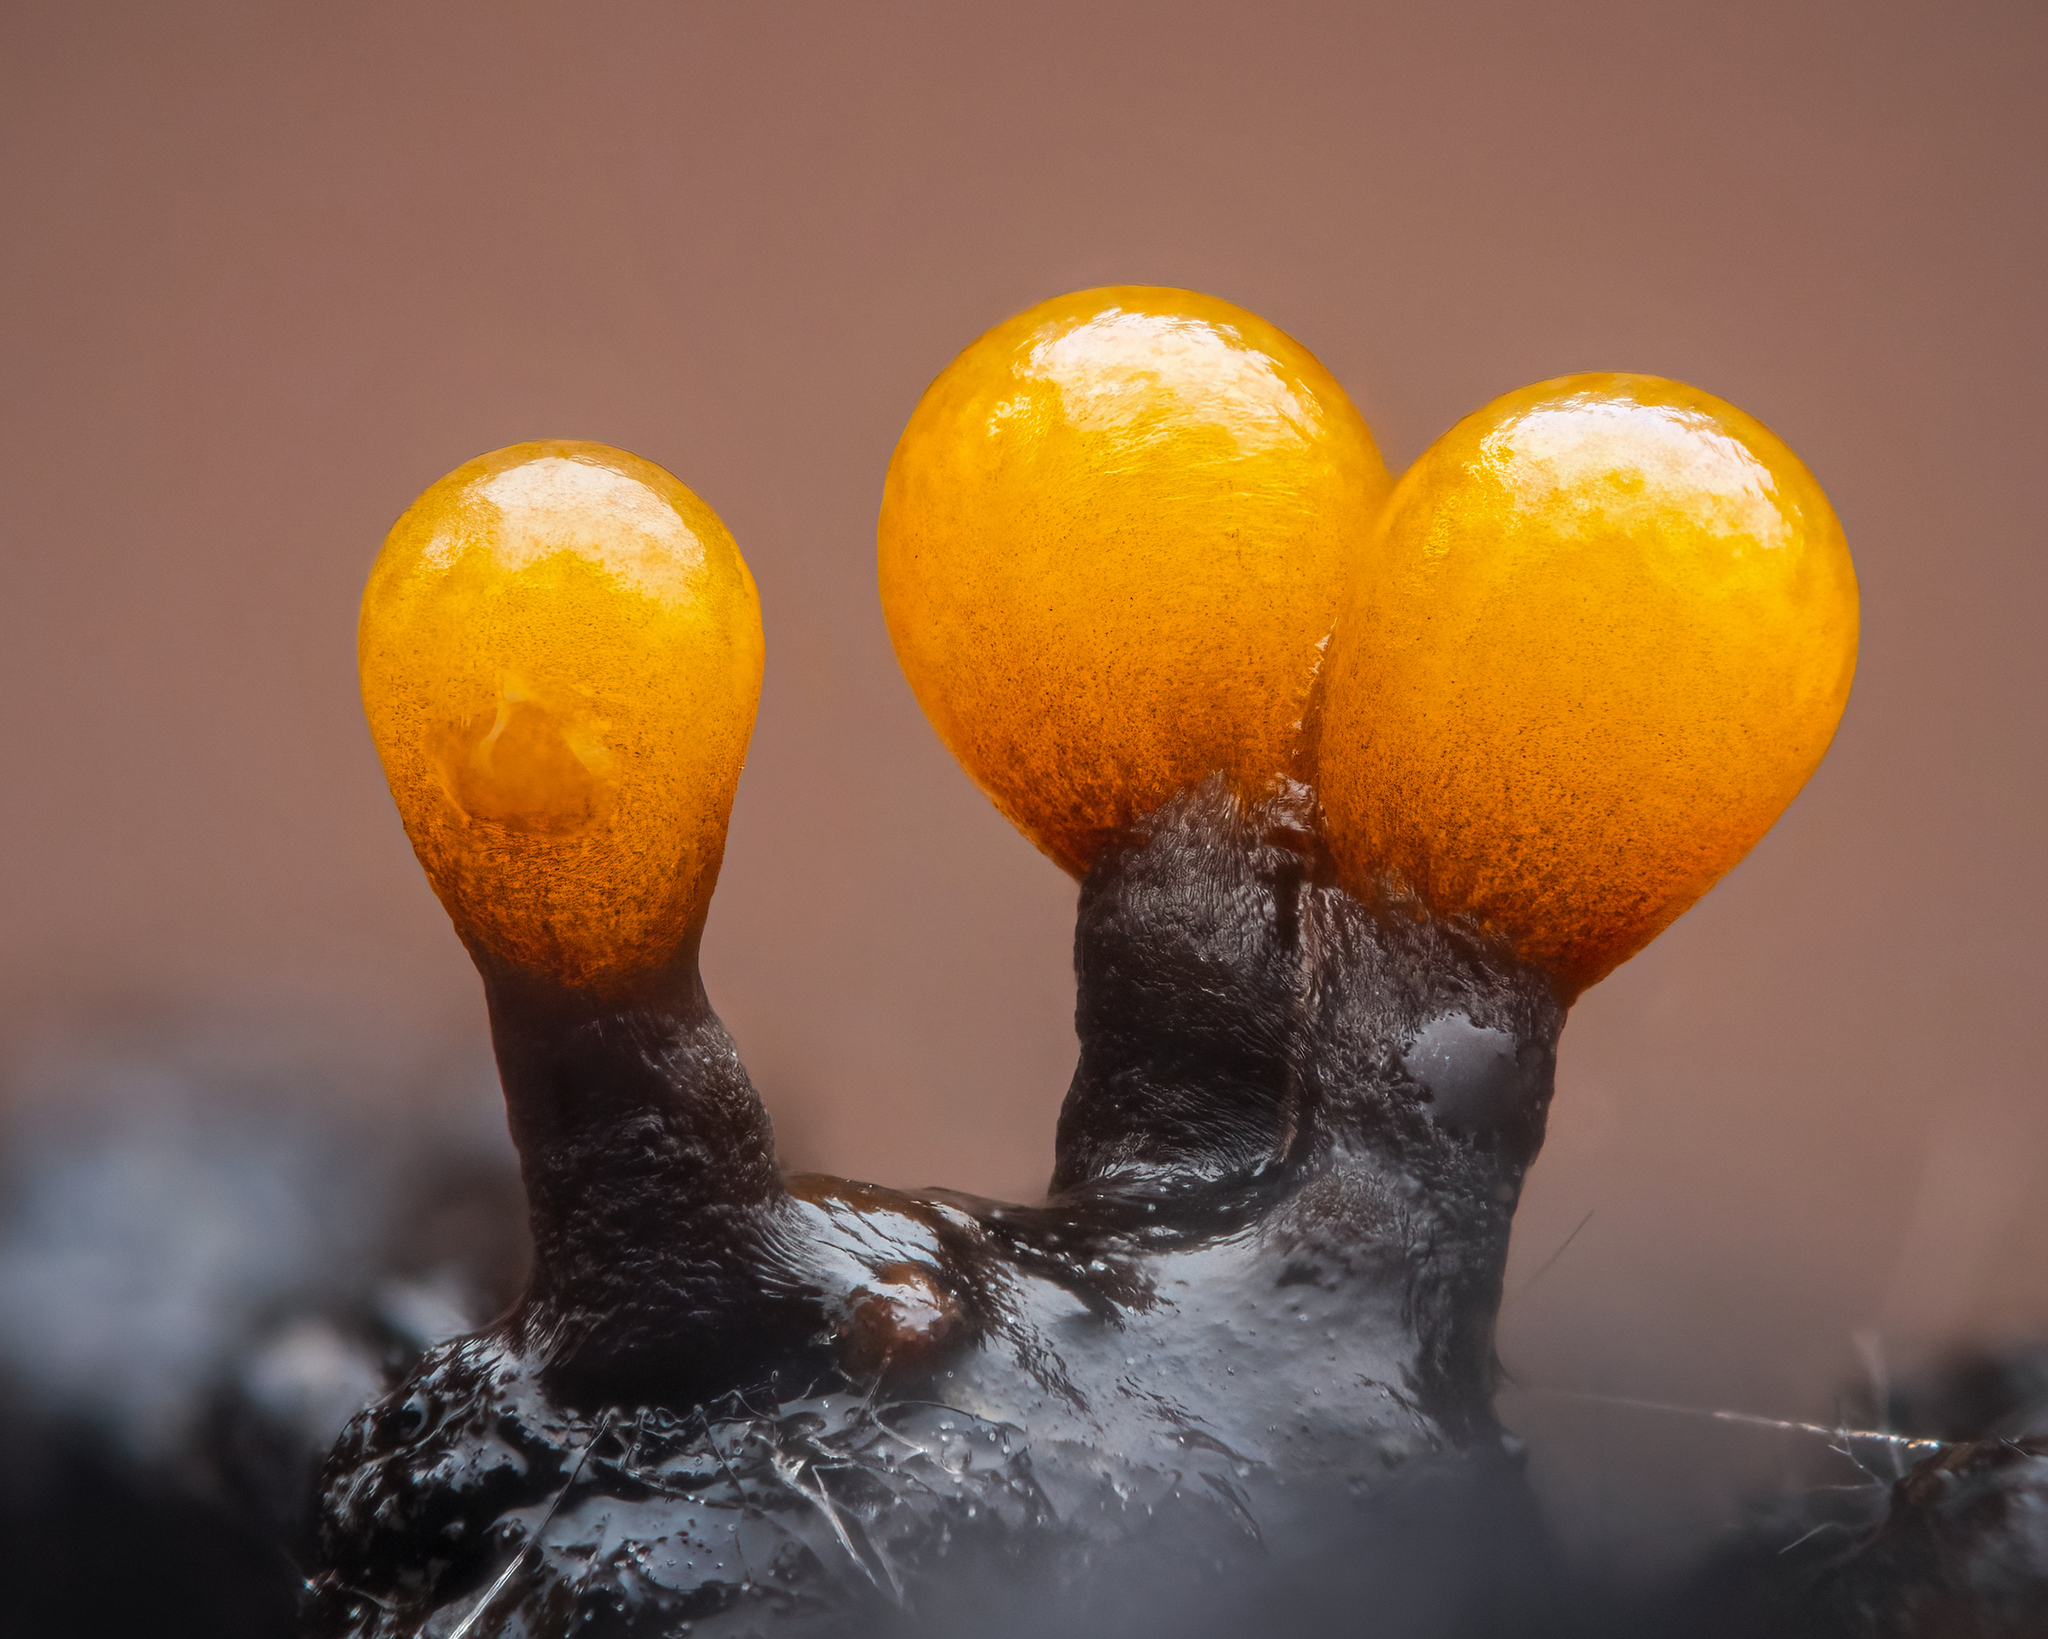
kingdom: Protozoa
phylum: Mycetozoa
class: Myxomycetes
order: Trichiales
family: Trichiaceae
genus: Trichia
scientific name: Trichia ambigua
